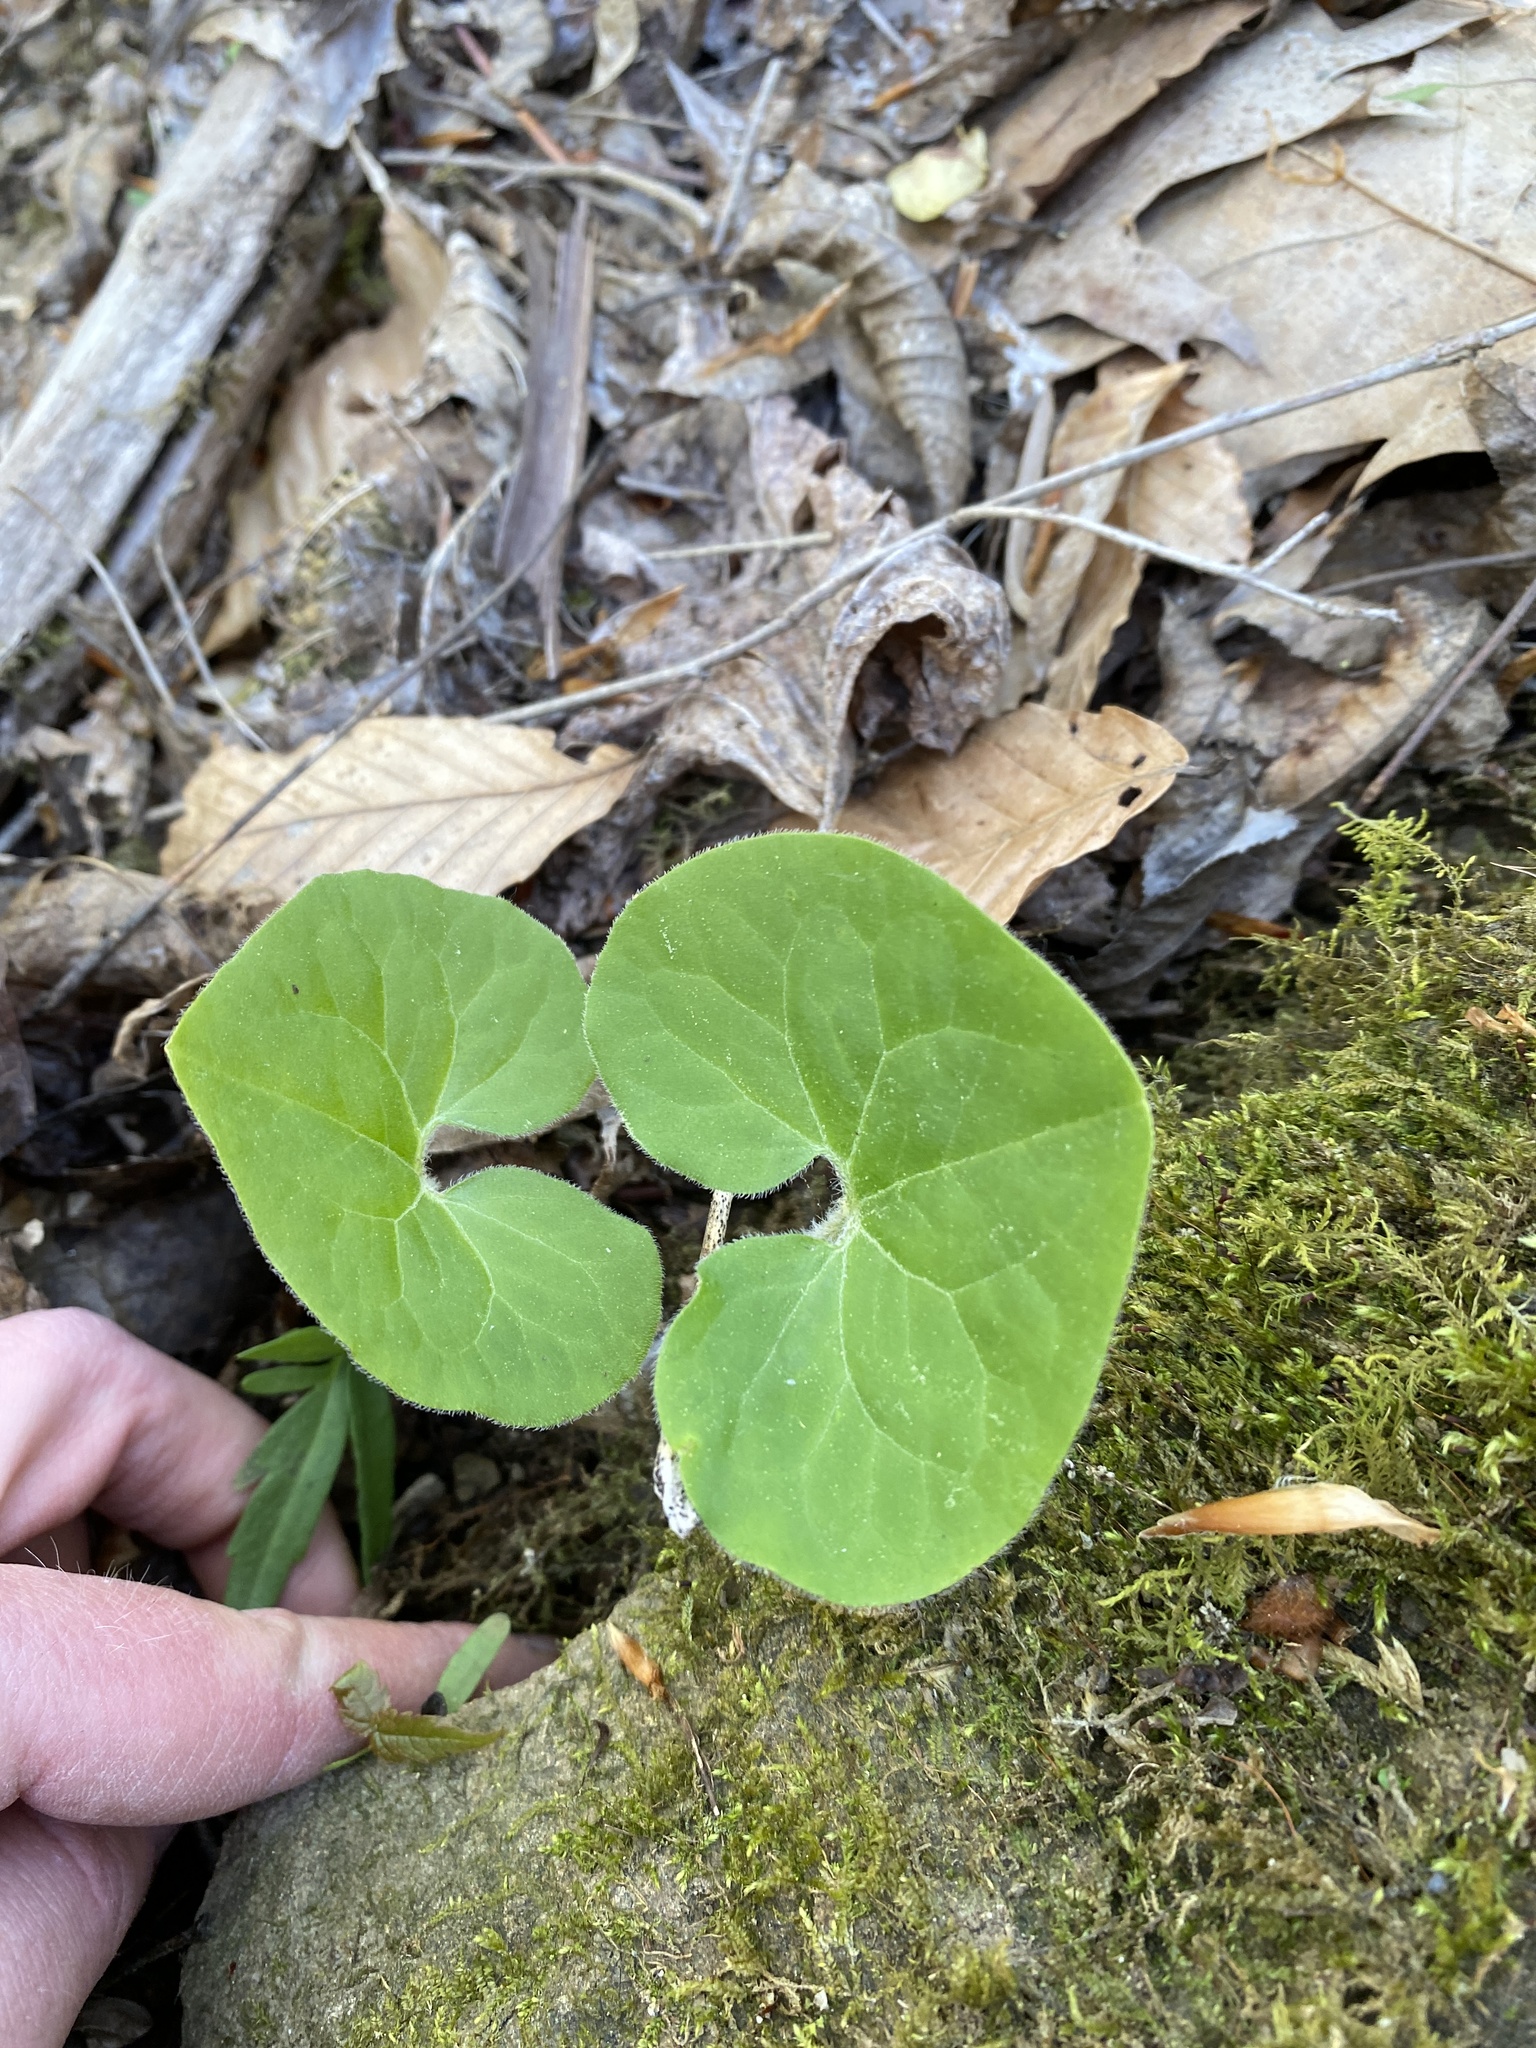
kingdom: Plantae
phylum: Tracheophyta
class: Magnoliopsida
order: Piperales
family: Aristolochiaceae
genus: Asarum
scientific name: Asarum canadense
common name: Wild ginger
